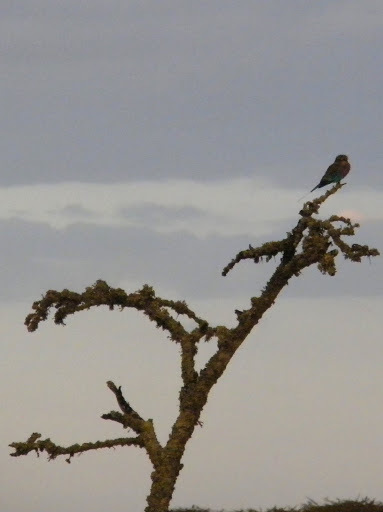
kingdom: Animalia
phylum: Chordata
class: Aves
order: Coraciiformes
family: Coraciidae
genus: Coracias
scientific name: Coracias caudatus
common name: Lilac-breasted roller
